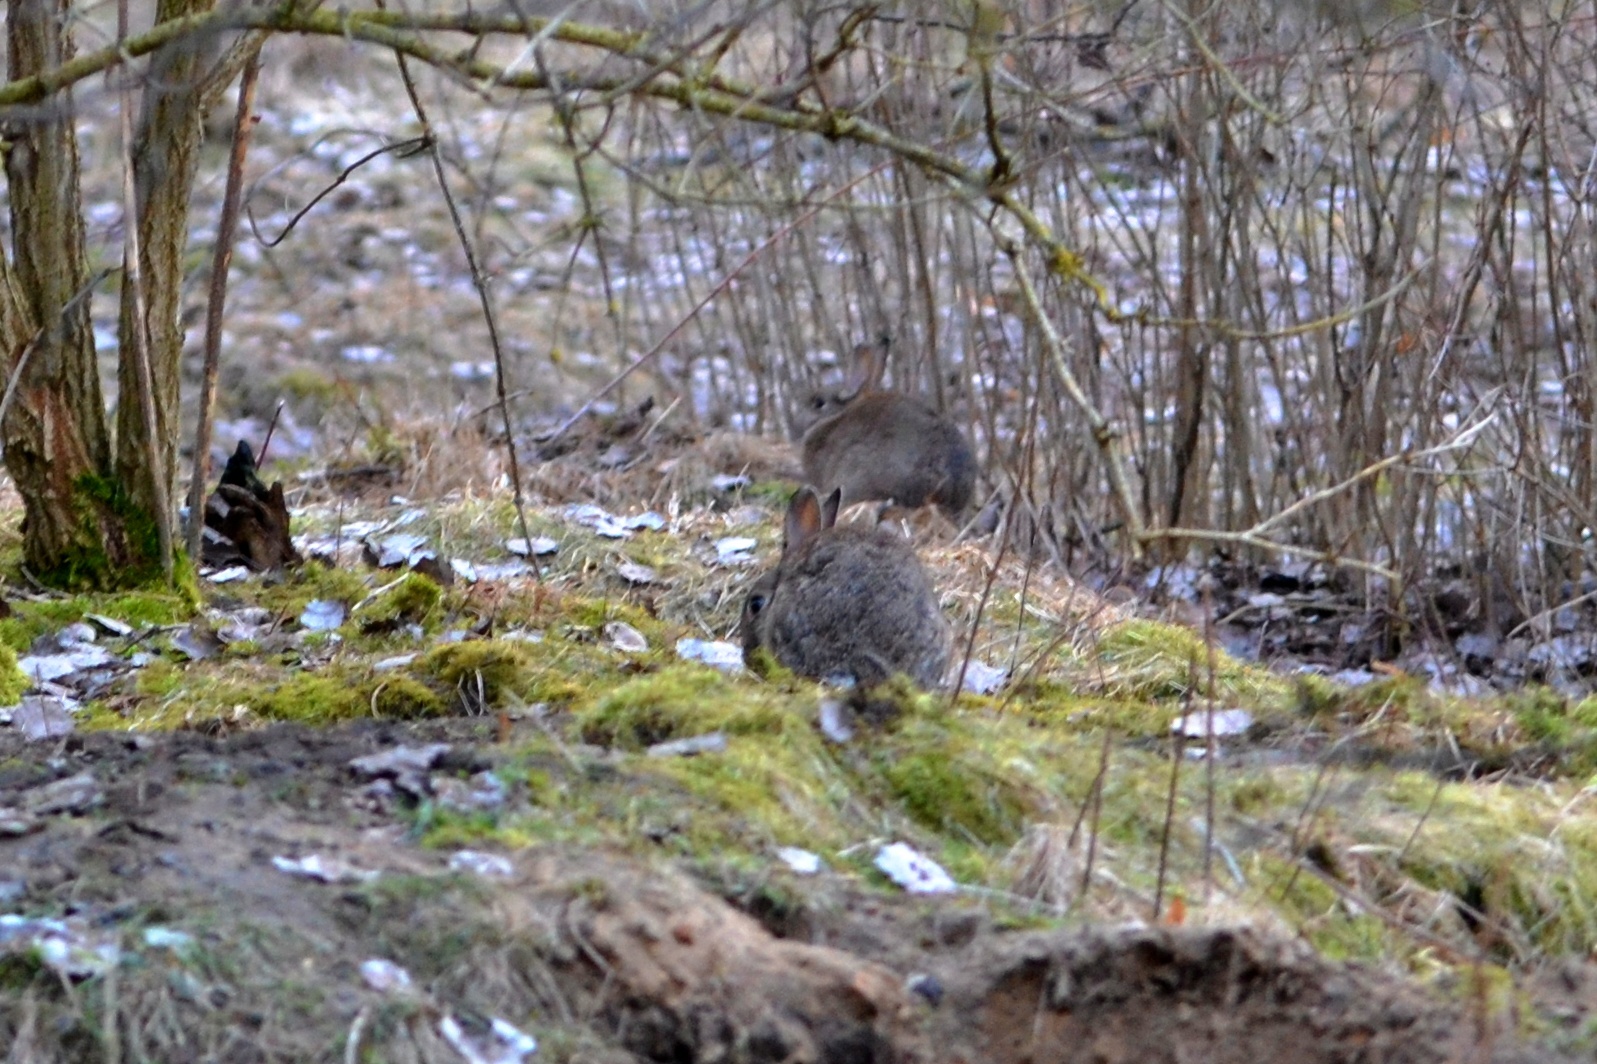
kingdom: Animalia
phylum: Chordata
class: Mammalia
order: Lagomorpha
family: Leporidae
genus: Oryctolagus
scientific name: Oryctolagus cuniculus
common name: European rabbit
